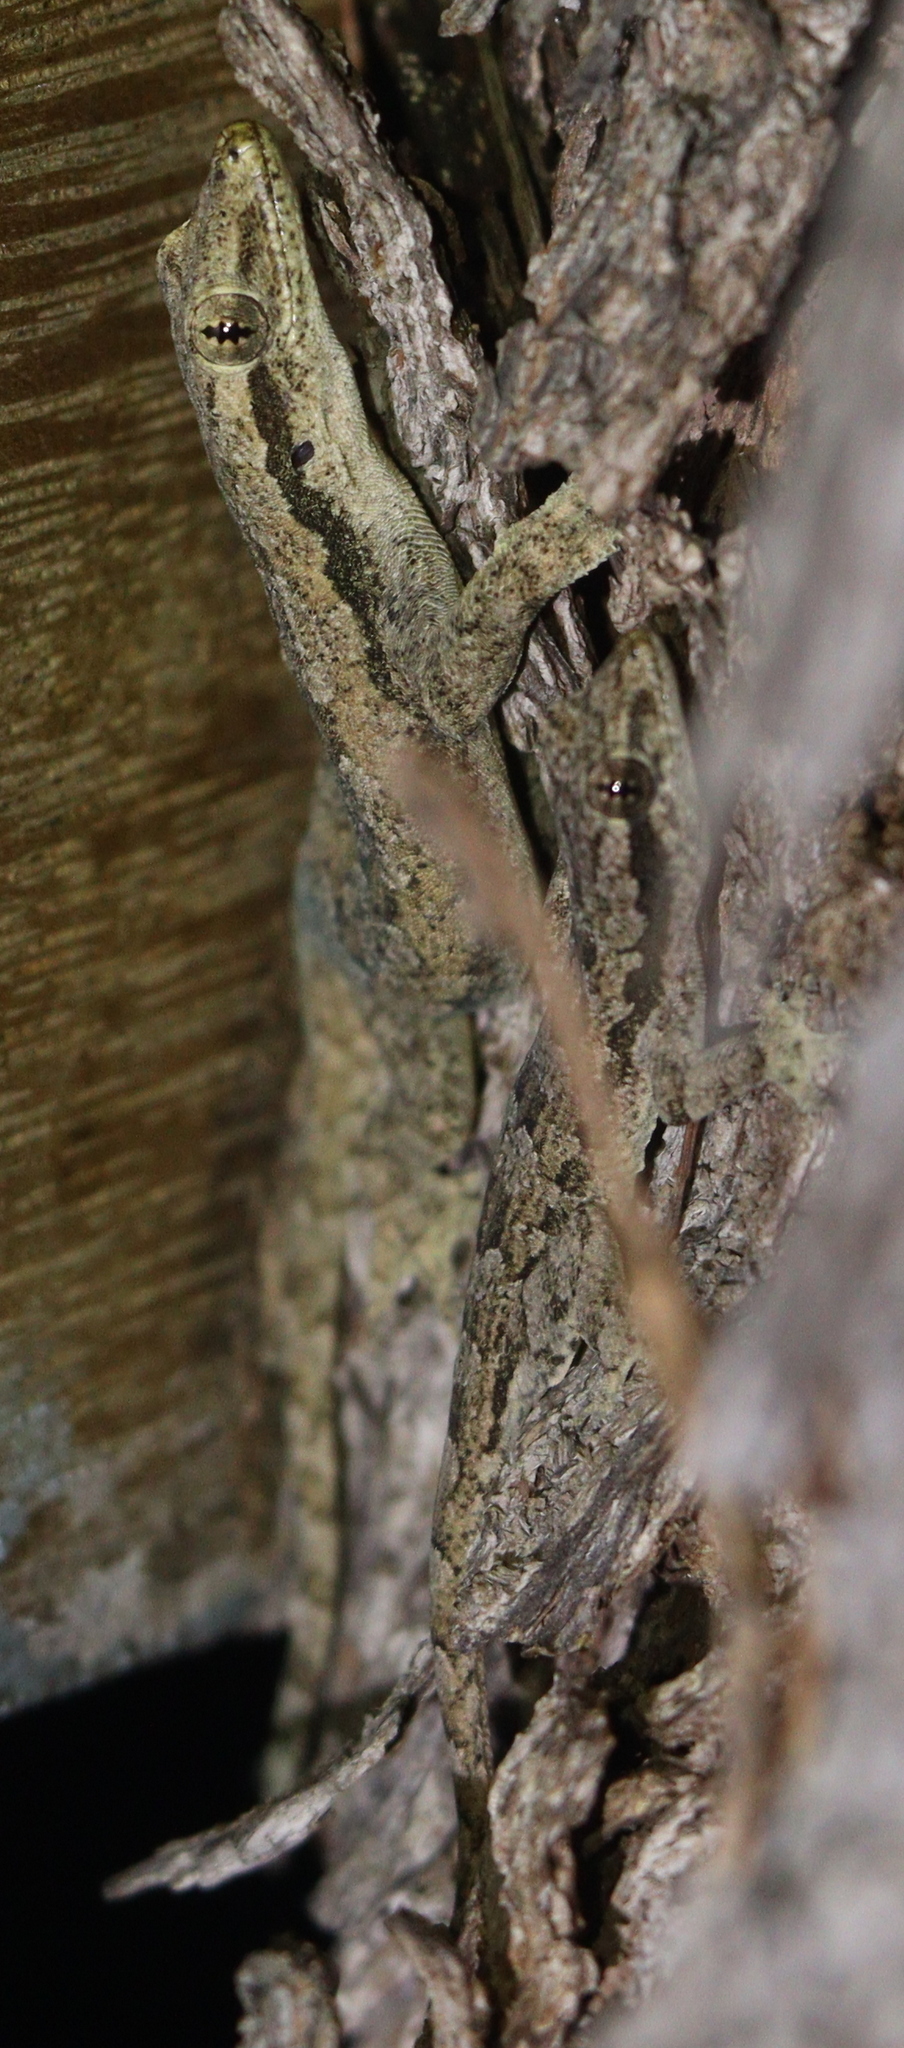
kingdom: Animalia
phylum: Chordata
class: Squamata
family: Gekkonidae
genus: Hemidactylus
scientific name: Hemidactylus platyurus
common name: Flat-tailed house gecko
